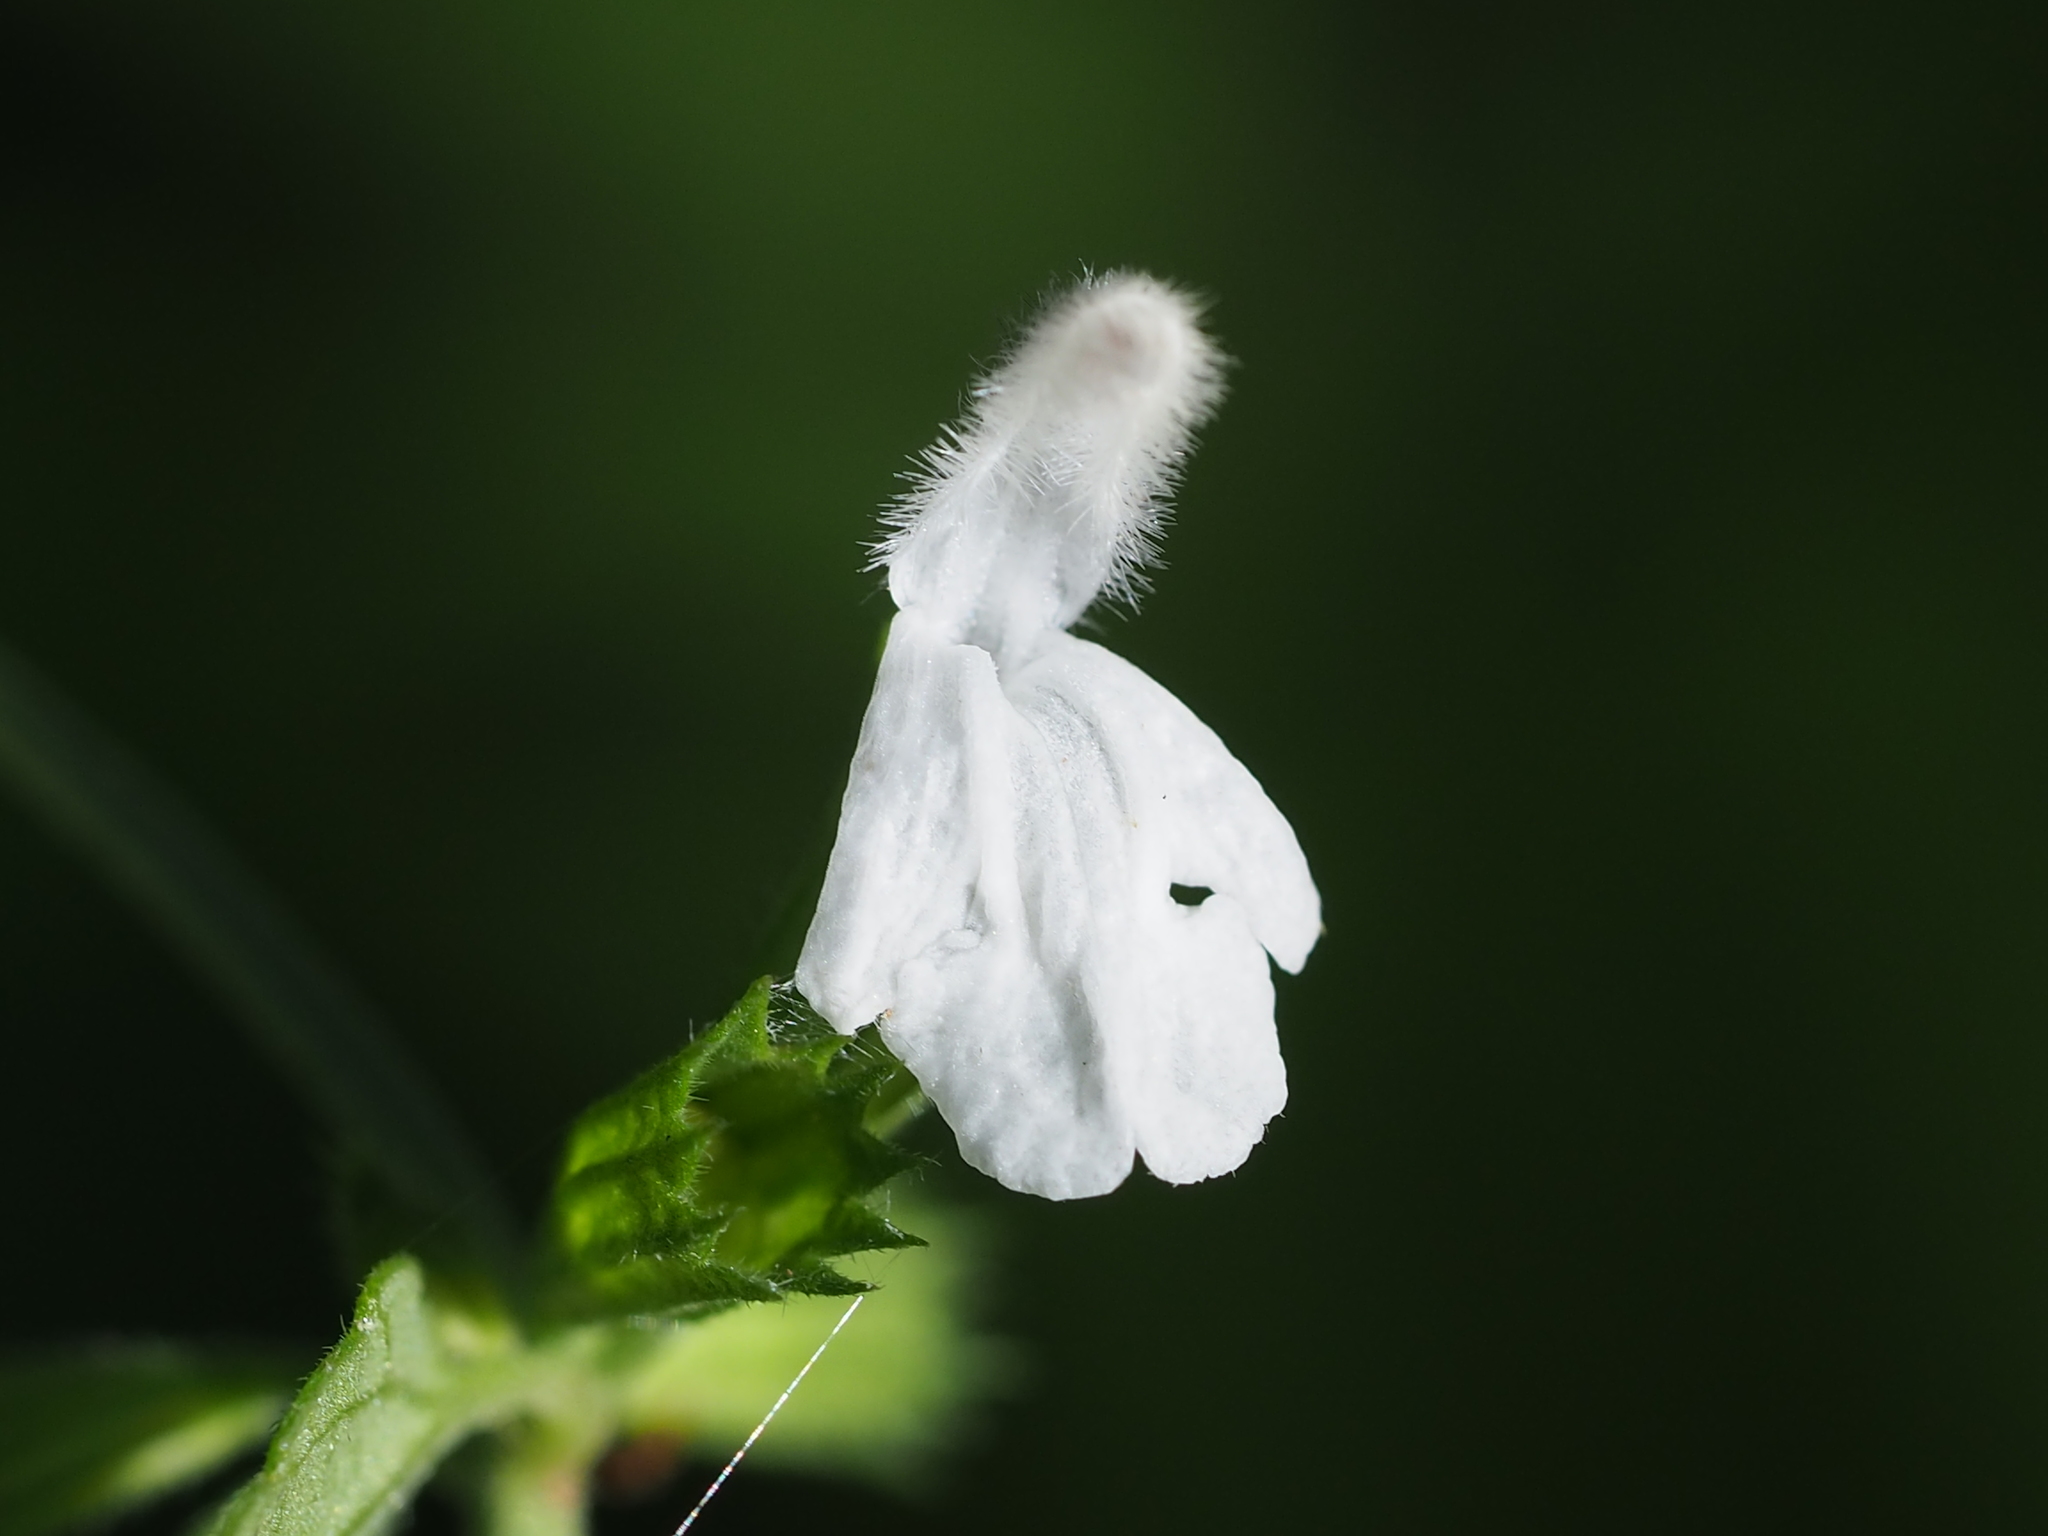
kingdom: Plantae
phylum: Tracheophyta
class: Magnoliopsida
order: Lamiales
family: Lamiaceae
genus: Leucas
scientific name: Leucas chinensis
